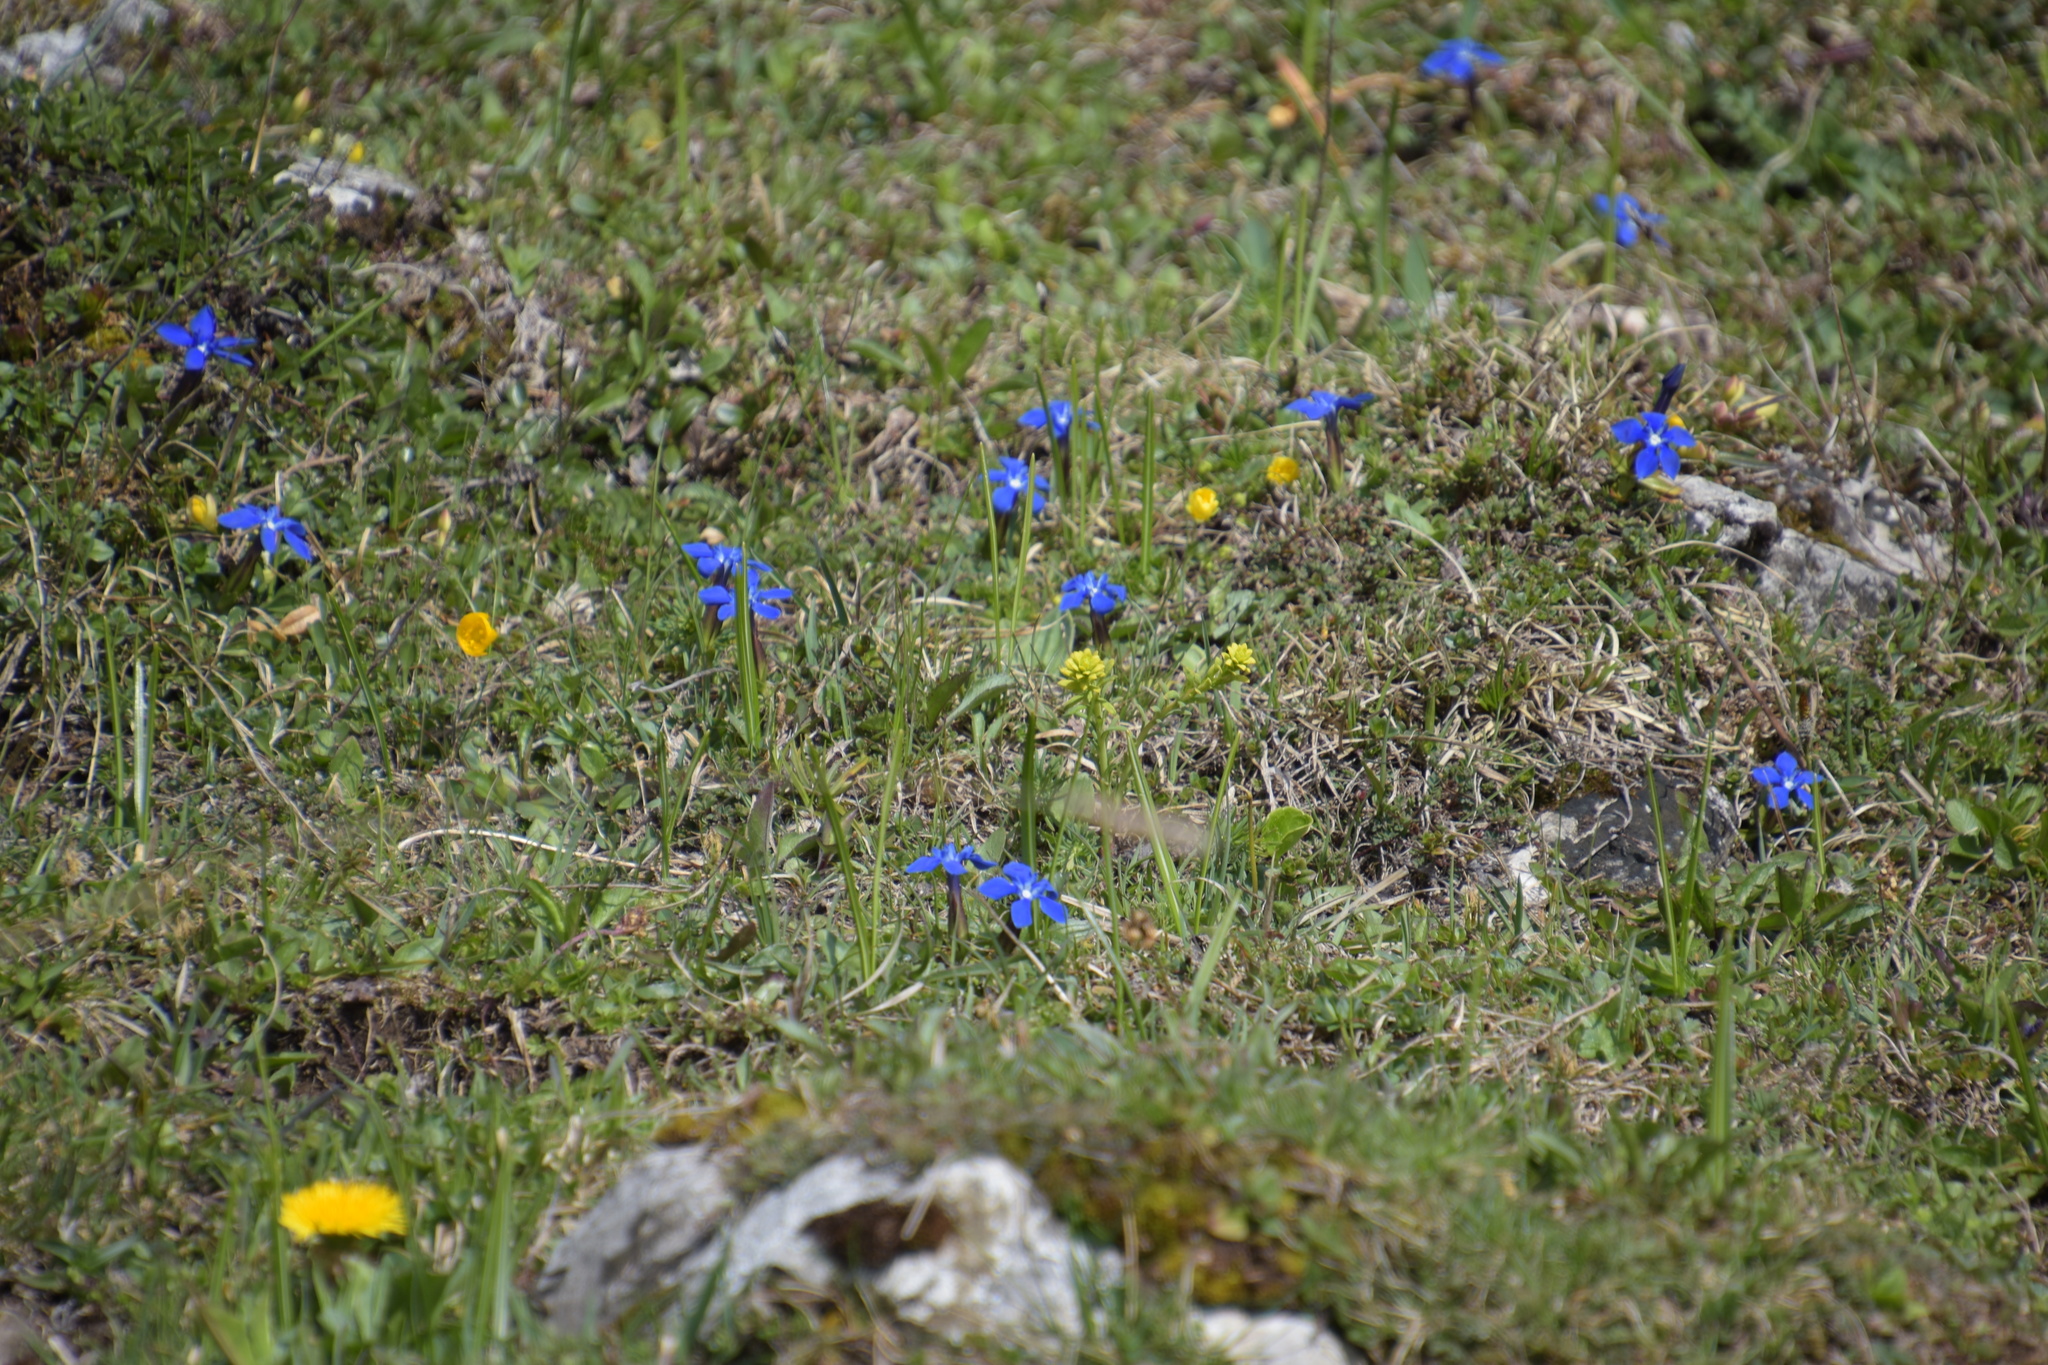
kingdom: Plantae
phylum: Tracheophyta
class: Magnoliopsida
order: Gentianales
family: Gentianaceae
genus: Gentiana
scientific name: Gentiana verna
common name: Spring gentian
